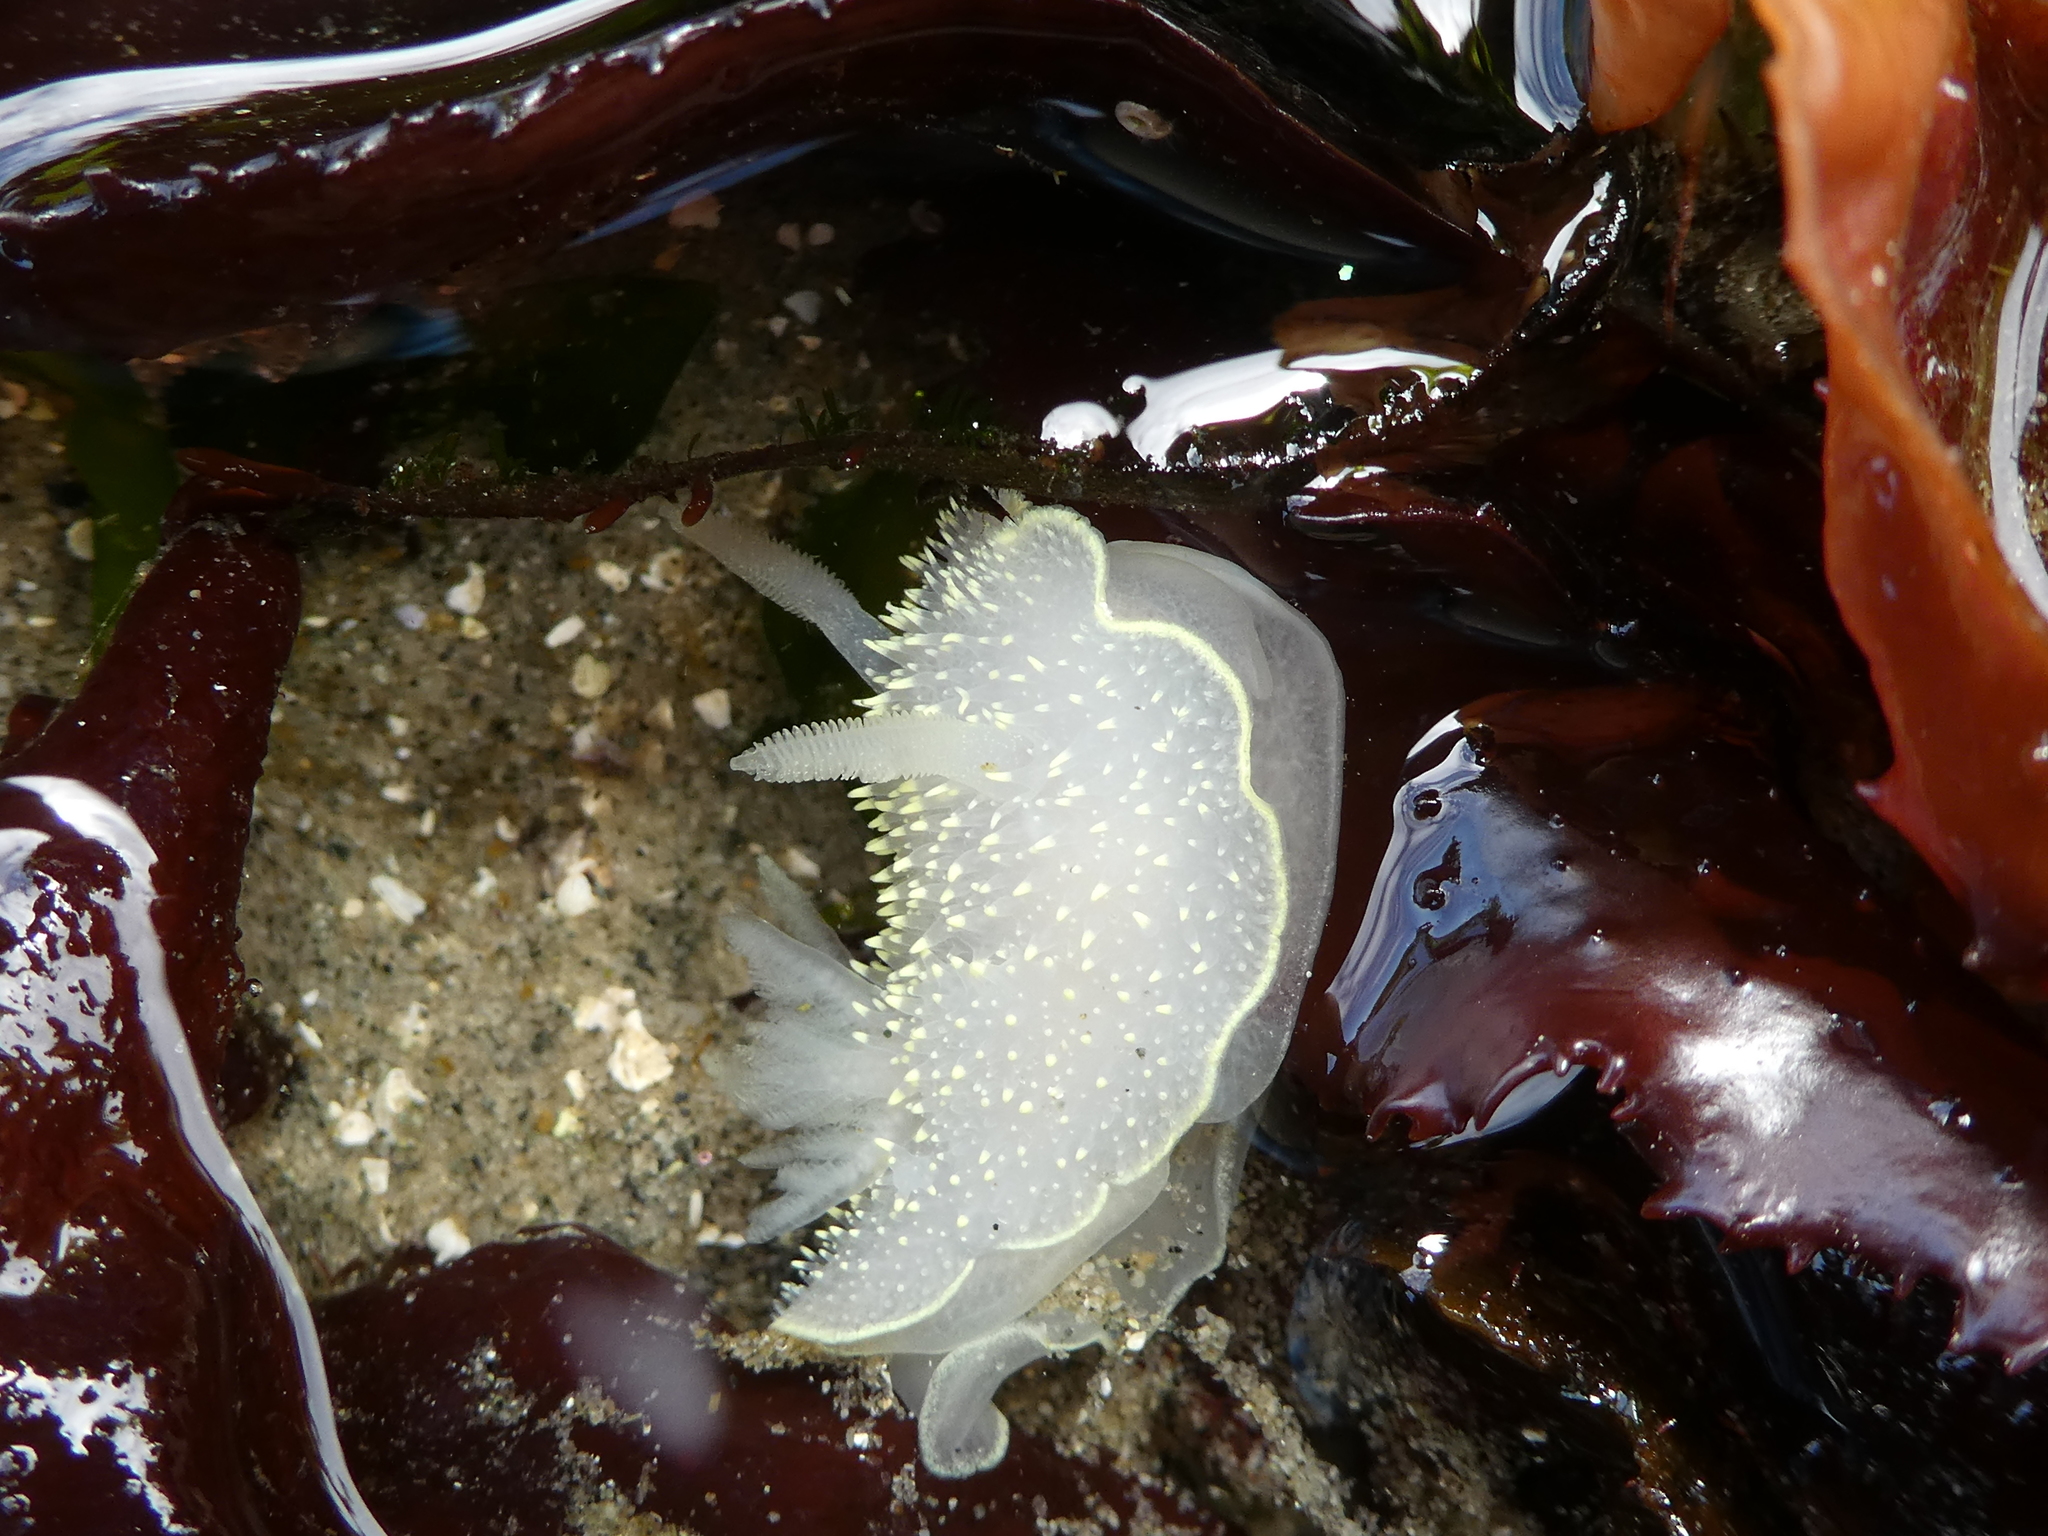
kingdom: Animalia
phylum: Mollusca
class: Gastropoda
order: Nudibranchia
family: Onchidorididae
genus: Acanthodoris
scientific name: Acanthodoris hudsoni
